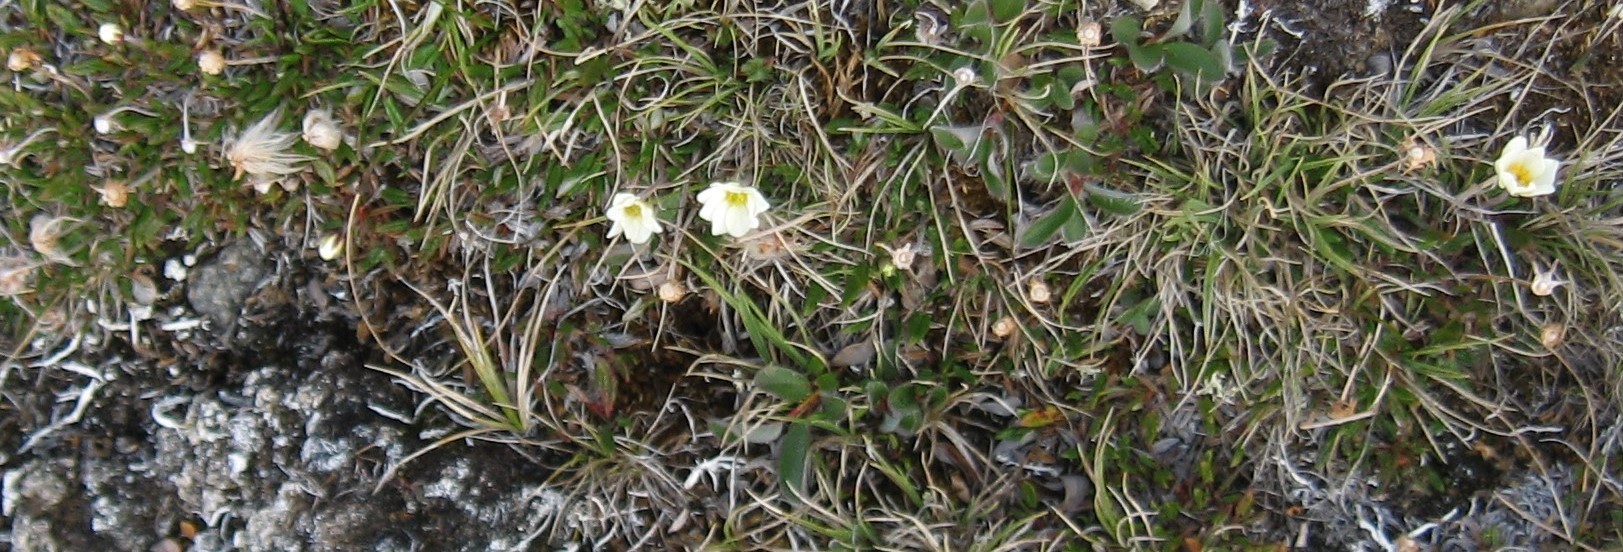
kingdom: Plantae
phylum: Tracheophyta
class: Magnoliopsida
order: Rosales
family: Rosaceae
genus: Dryas
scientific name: Dryas integrifolia
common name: Entire-leaved mountain avens
